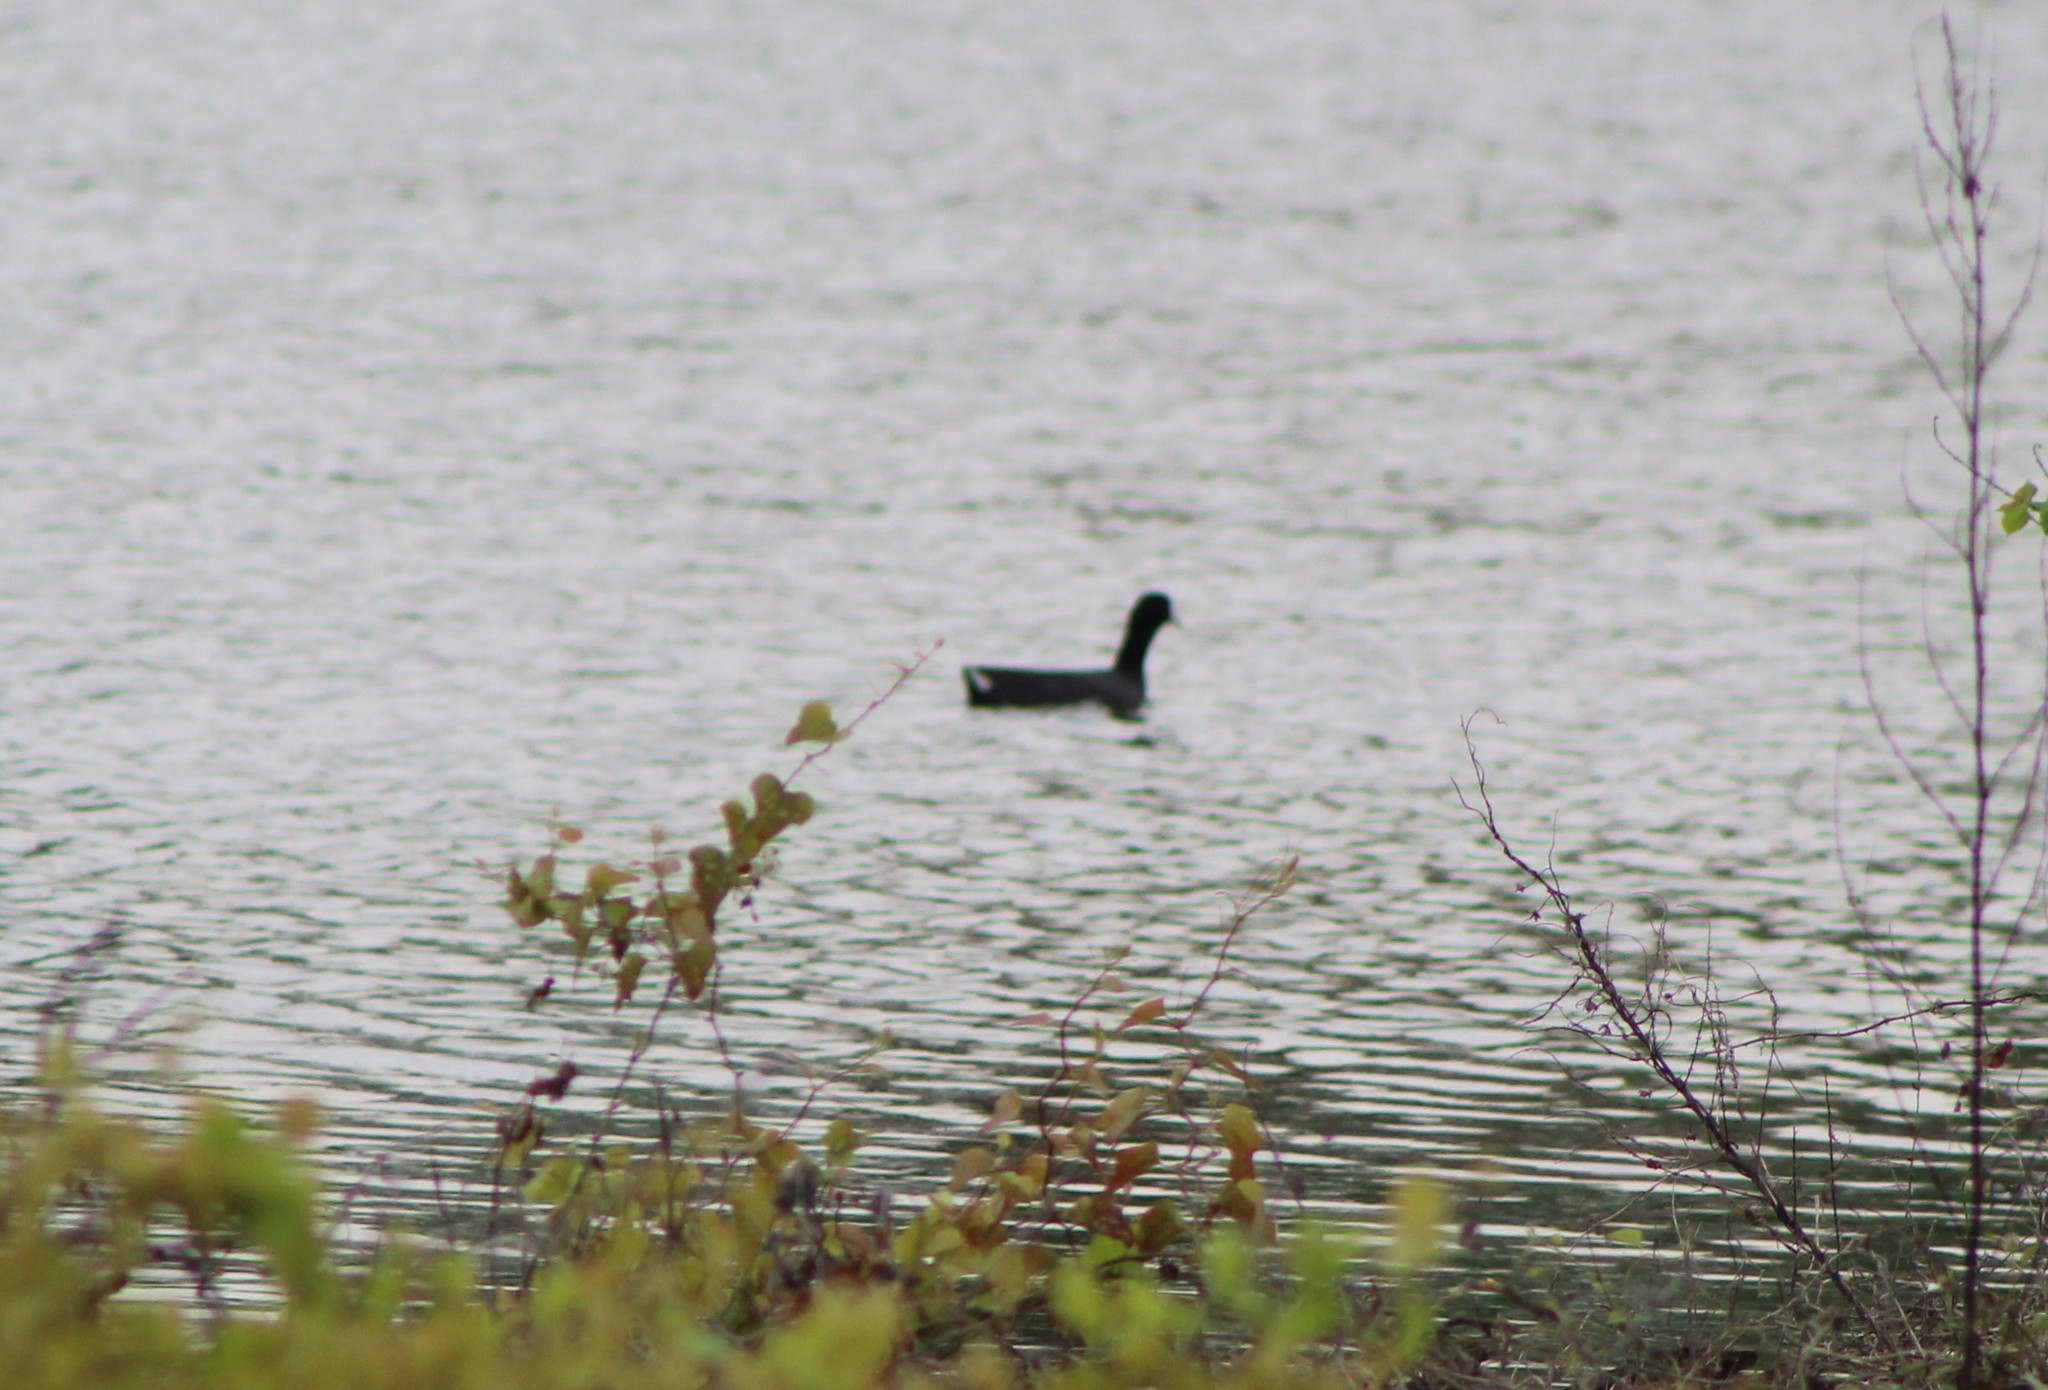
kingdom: Animalia
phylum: Chordata
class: Aves
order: Gruiformes
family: Rallidae
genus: Fulica
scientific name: Fulica americana
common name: American coot
